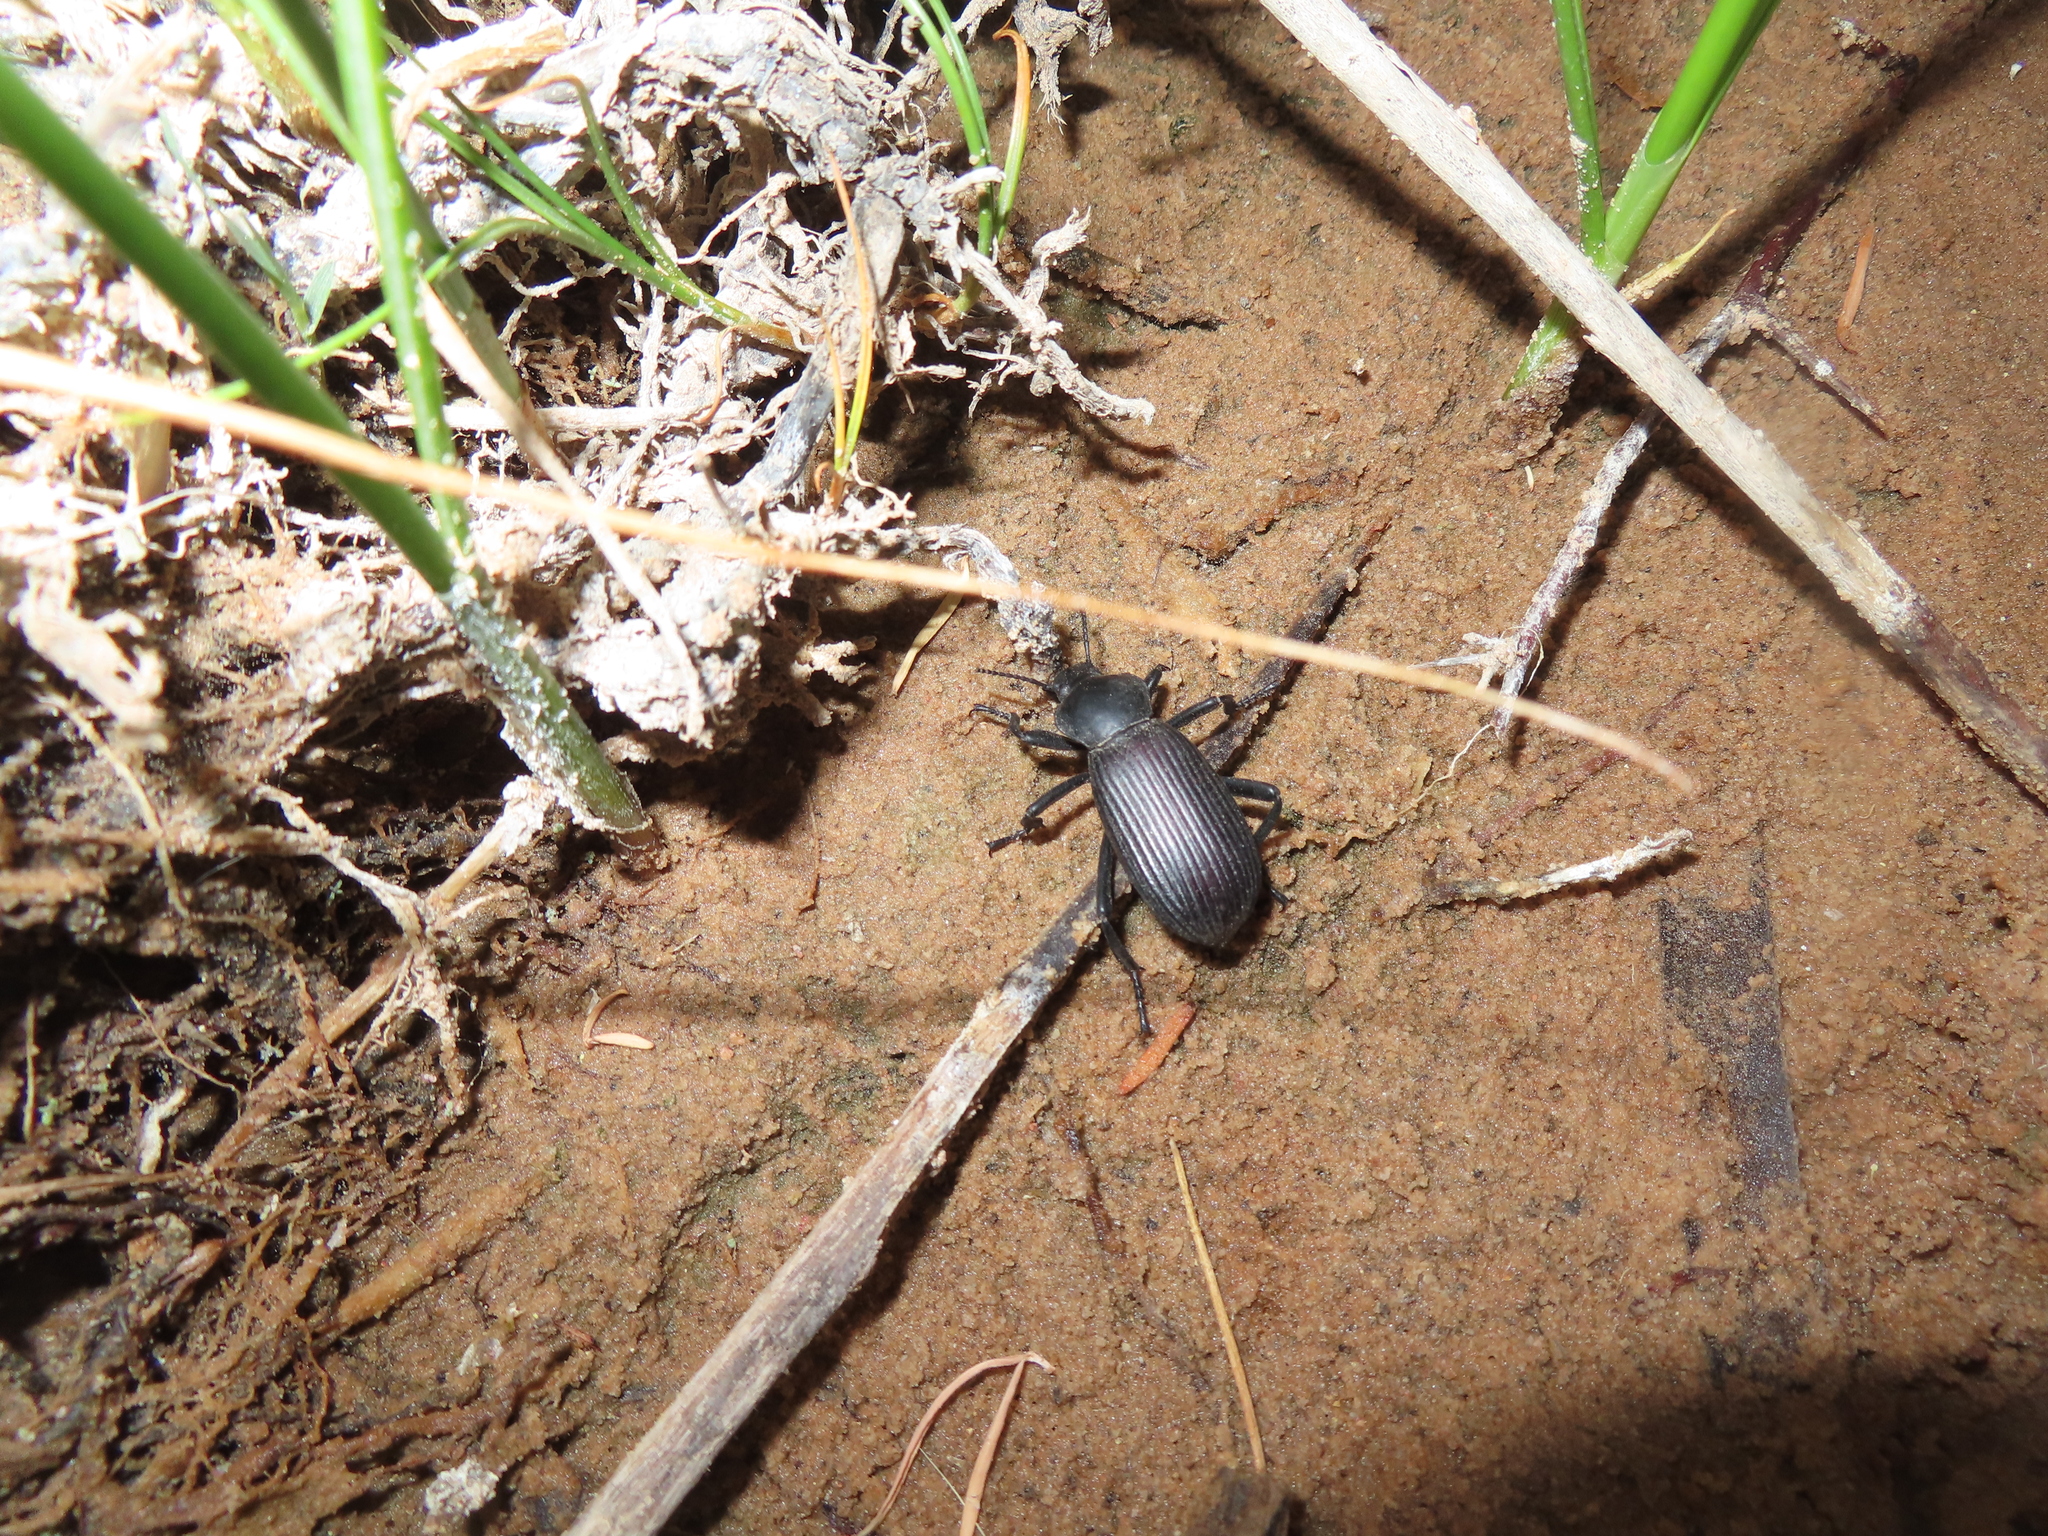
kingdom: Animalia
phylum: Arthropoda
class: Insecta
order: Coleoptera
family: Tenebrionidae
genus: Eleodes
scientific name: Eleodes obscura
